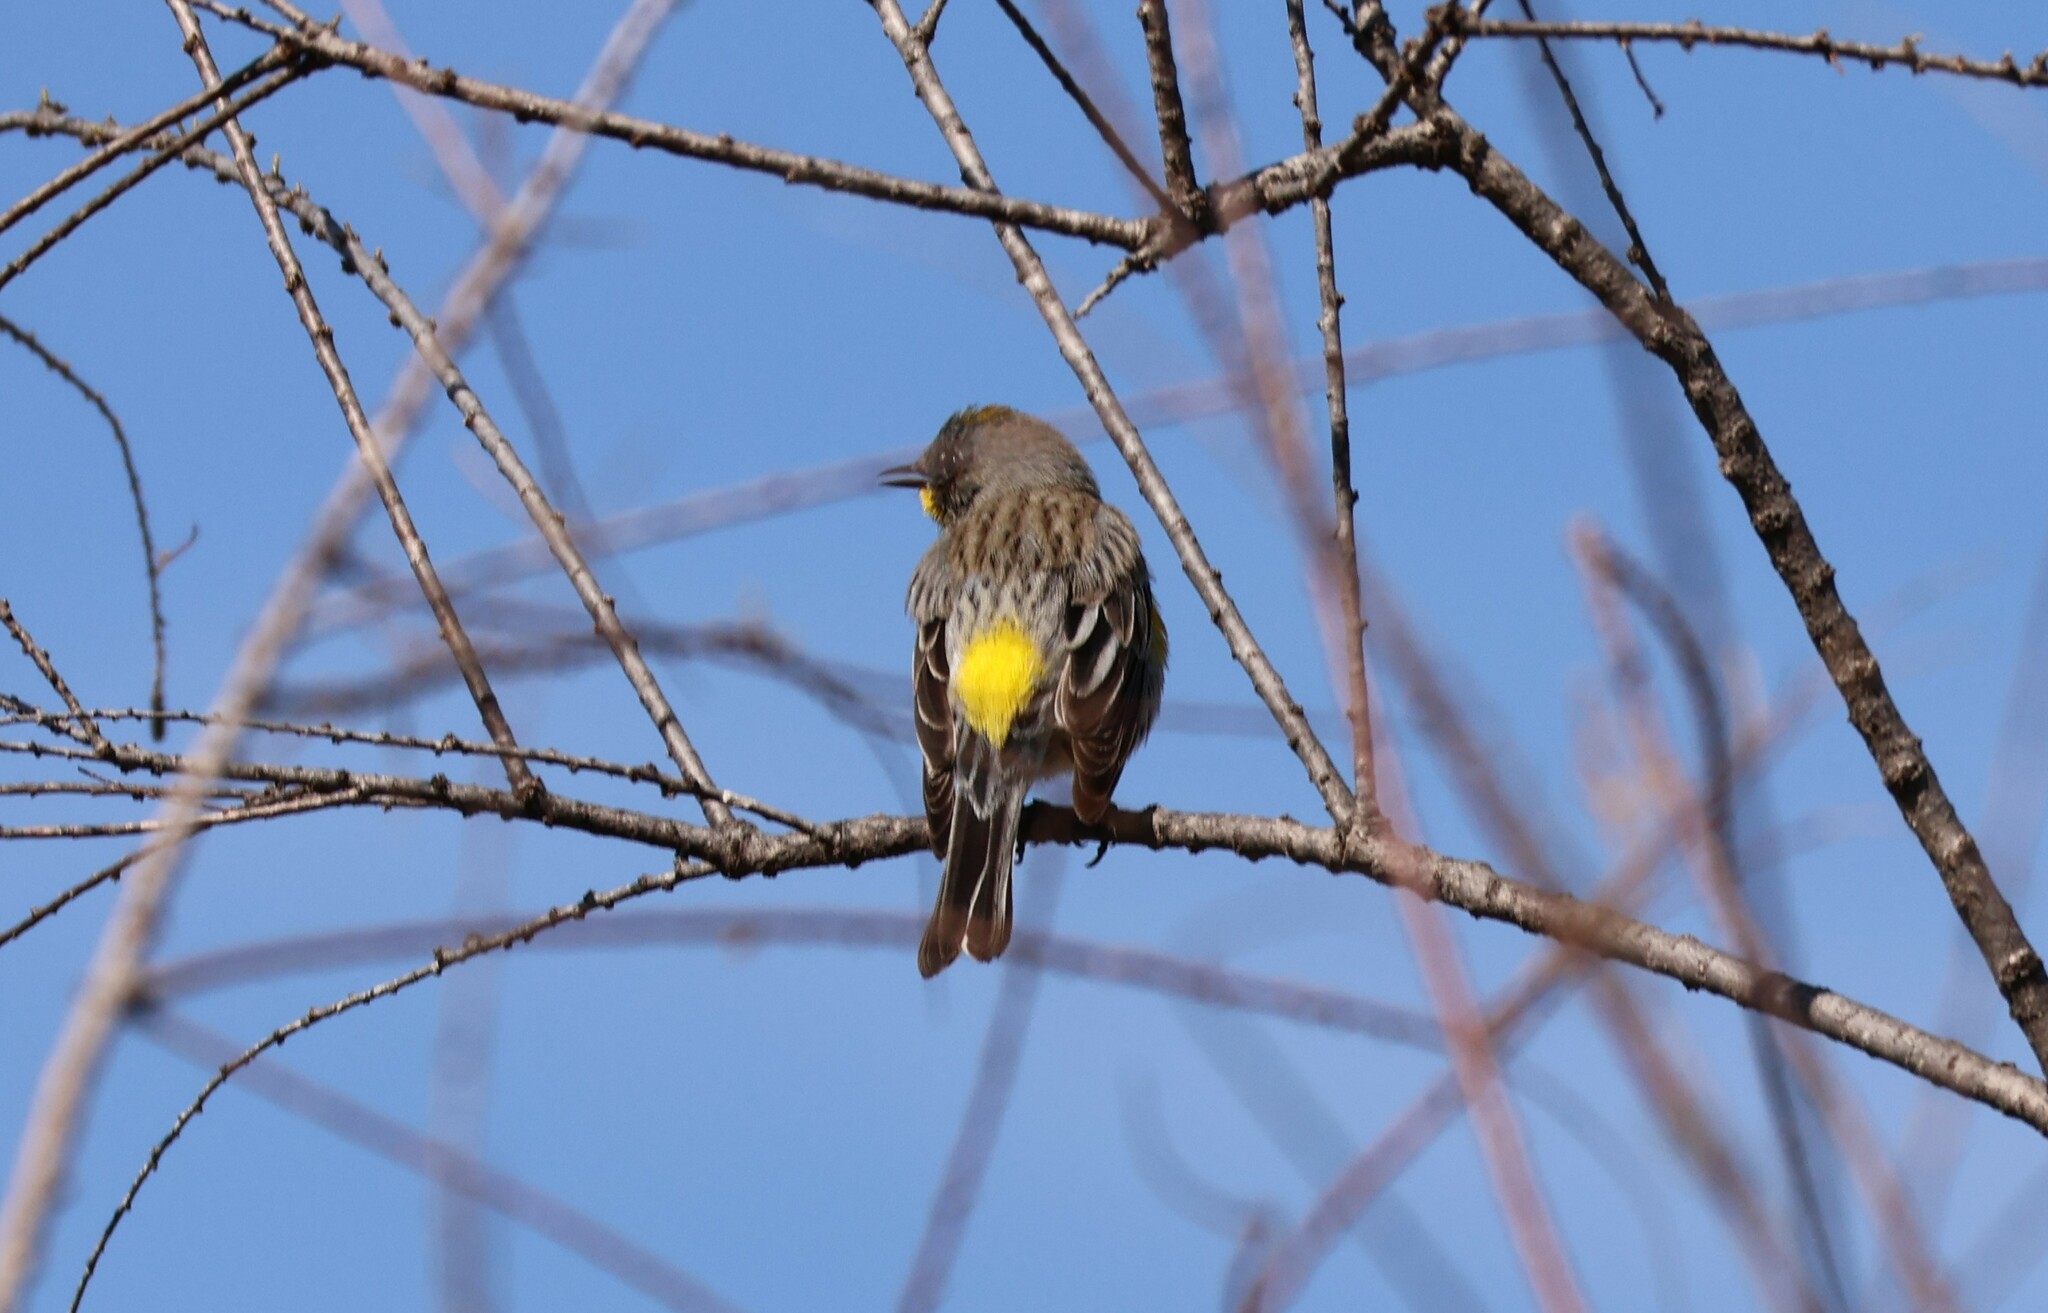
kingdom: Animalia
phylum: Chordata
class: Aves
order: Passeriformes
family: Parulidae
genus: Setophaga
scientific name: Setophaga coronata
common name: Myrtle warbler
